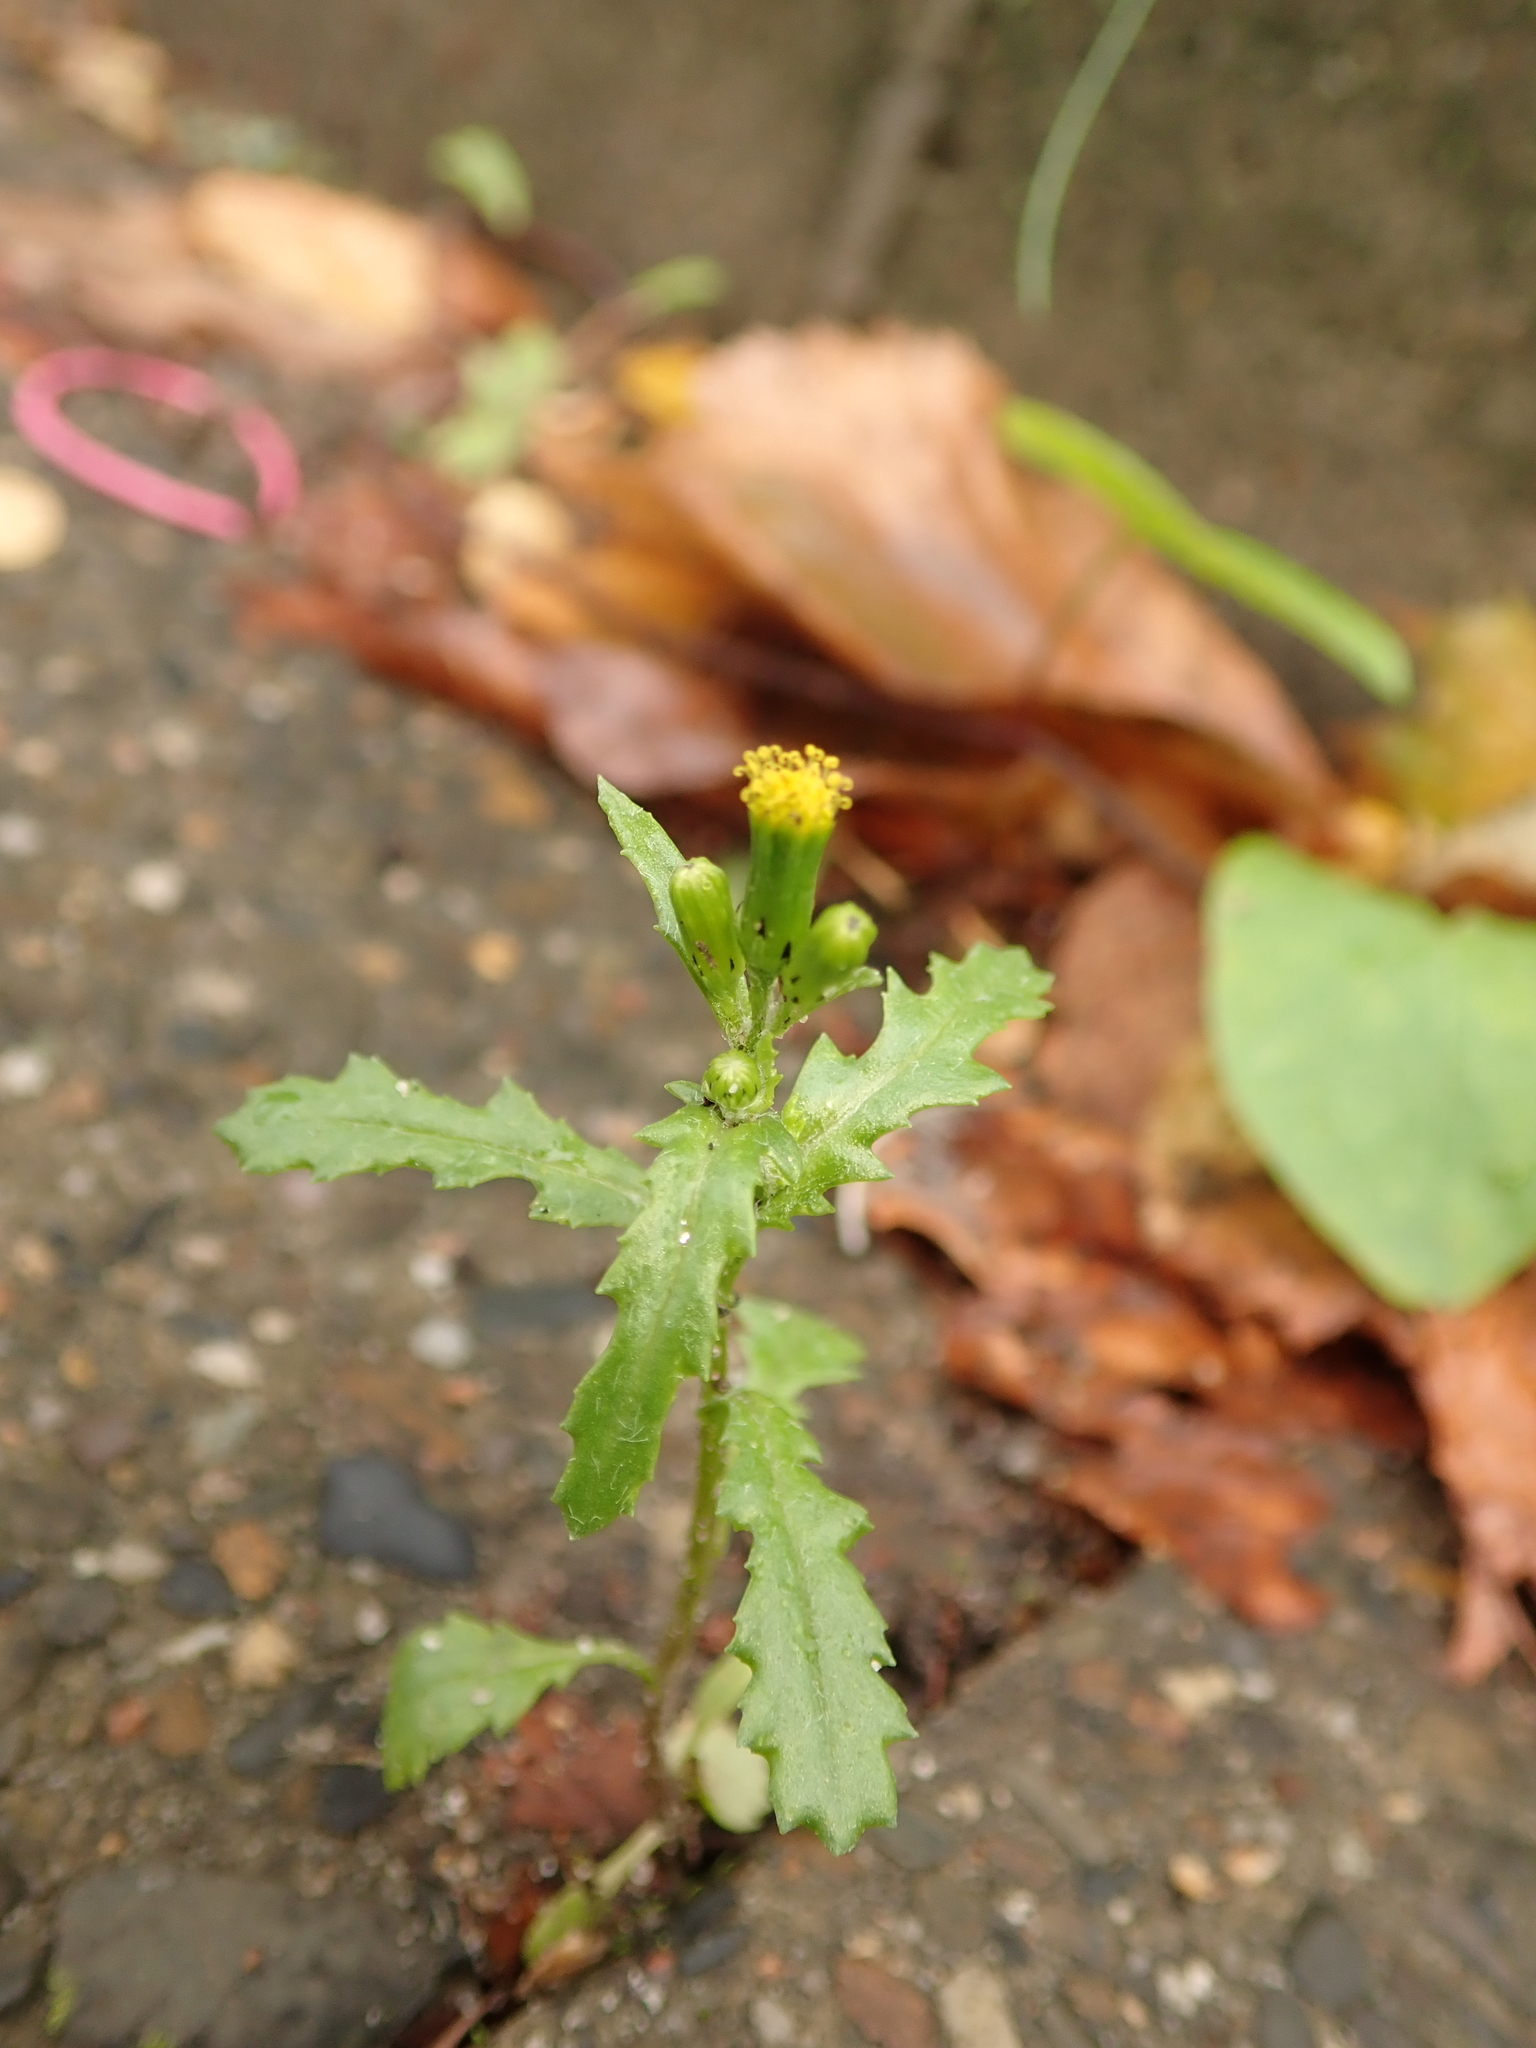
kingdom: Plantae
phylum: Tracheophyta
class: Magnoliopsida
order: Asterales
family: Asteraceae
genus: Senecio
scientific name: Senecio vulgaris
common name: Old-man-in-the-spring
